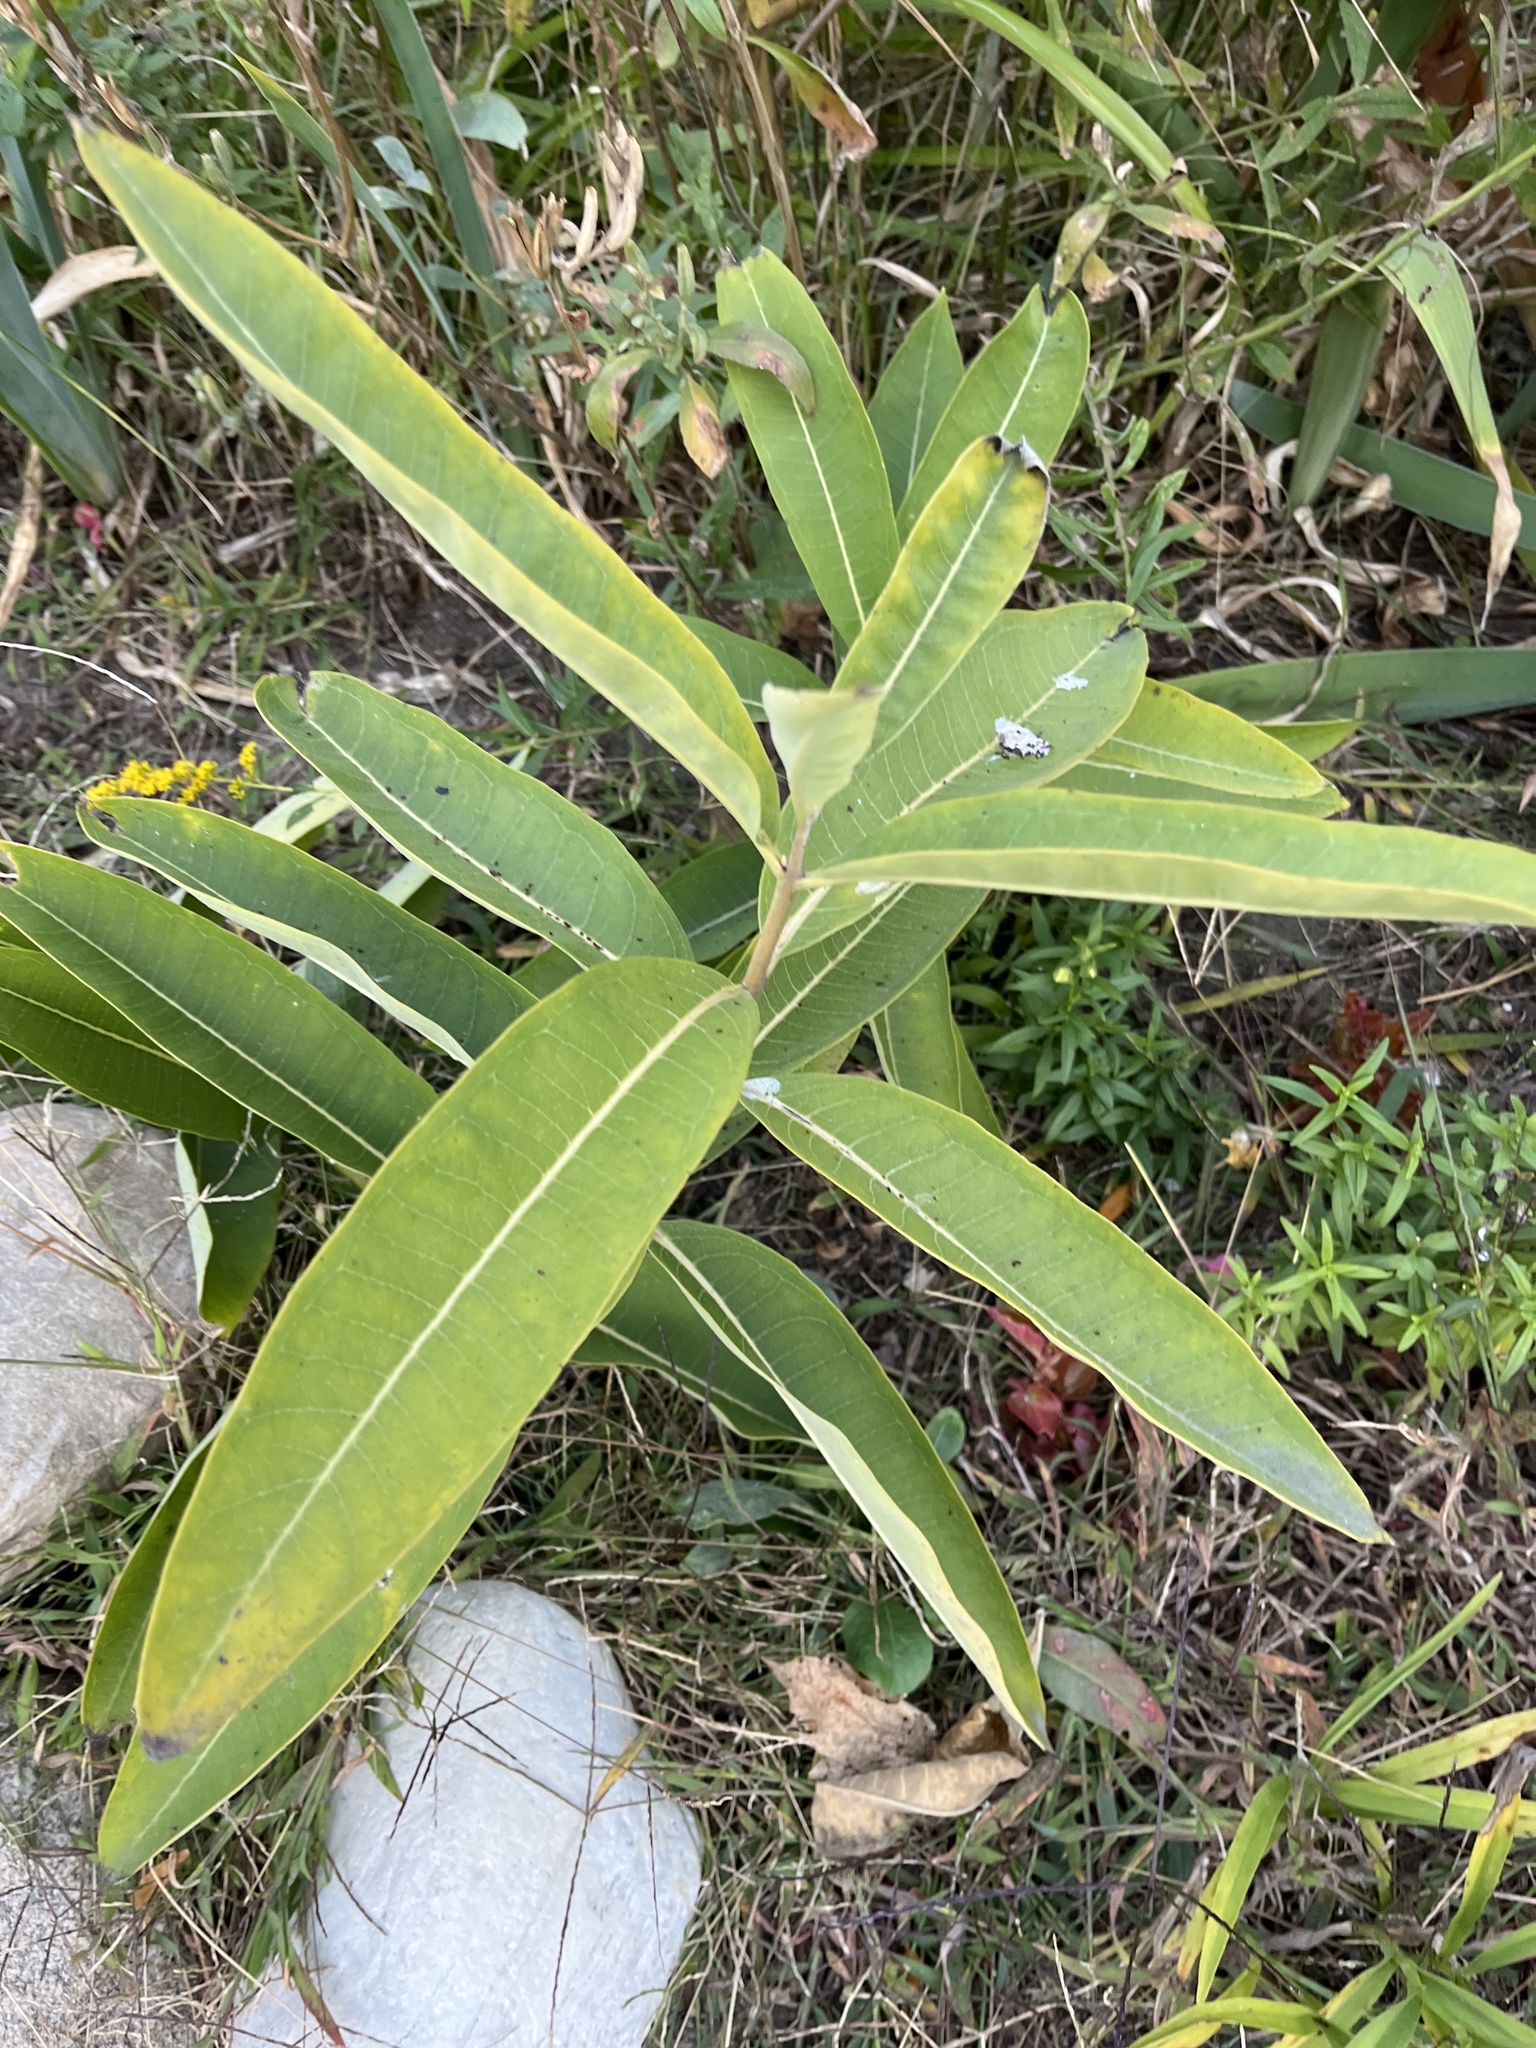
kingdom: Plantae
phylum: Tracheophyta
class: Magnoliopsida
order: Gentianales
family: Apocynaceae
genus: Asclepias
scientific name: Asclepias syriaca
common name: Common milkweed
